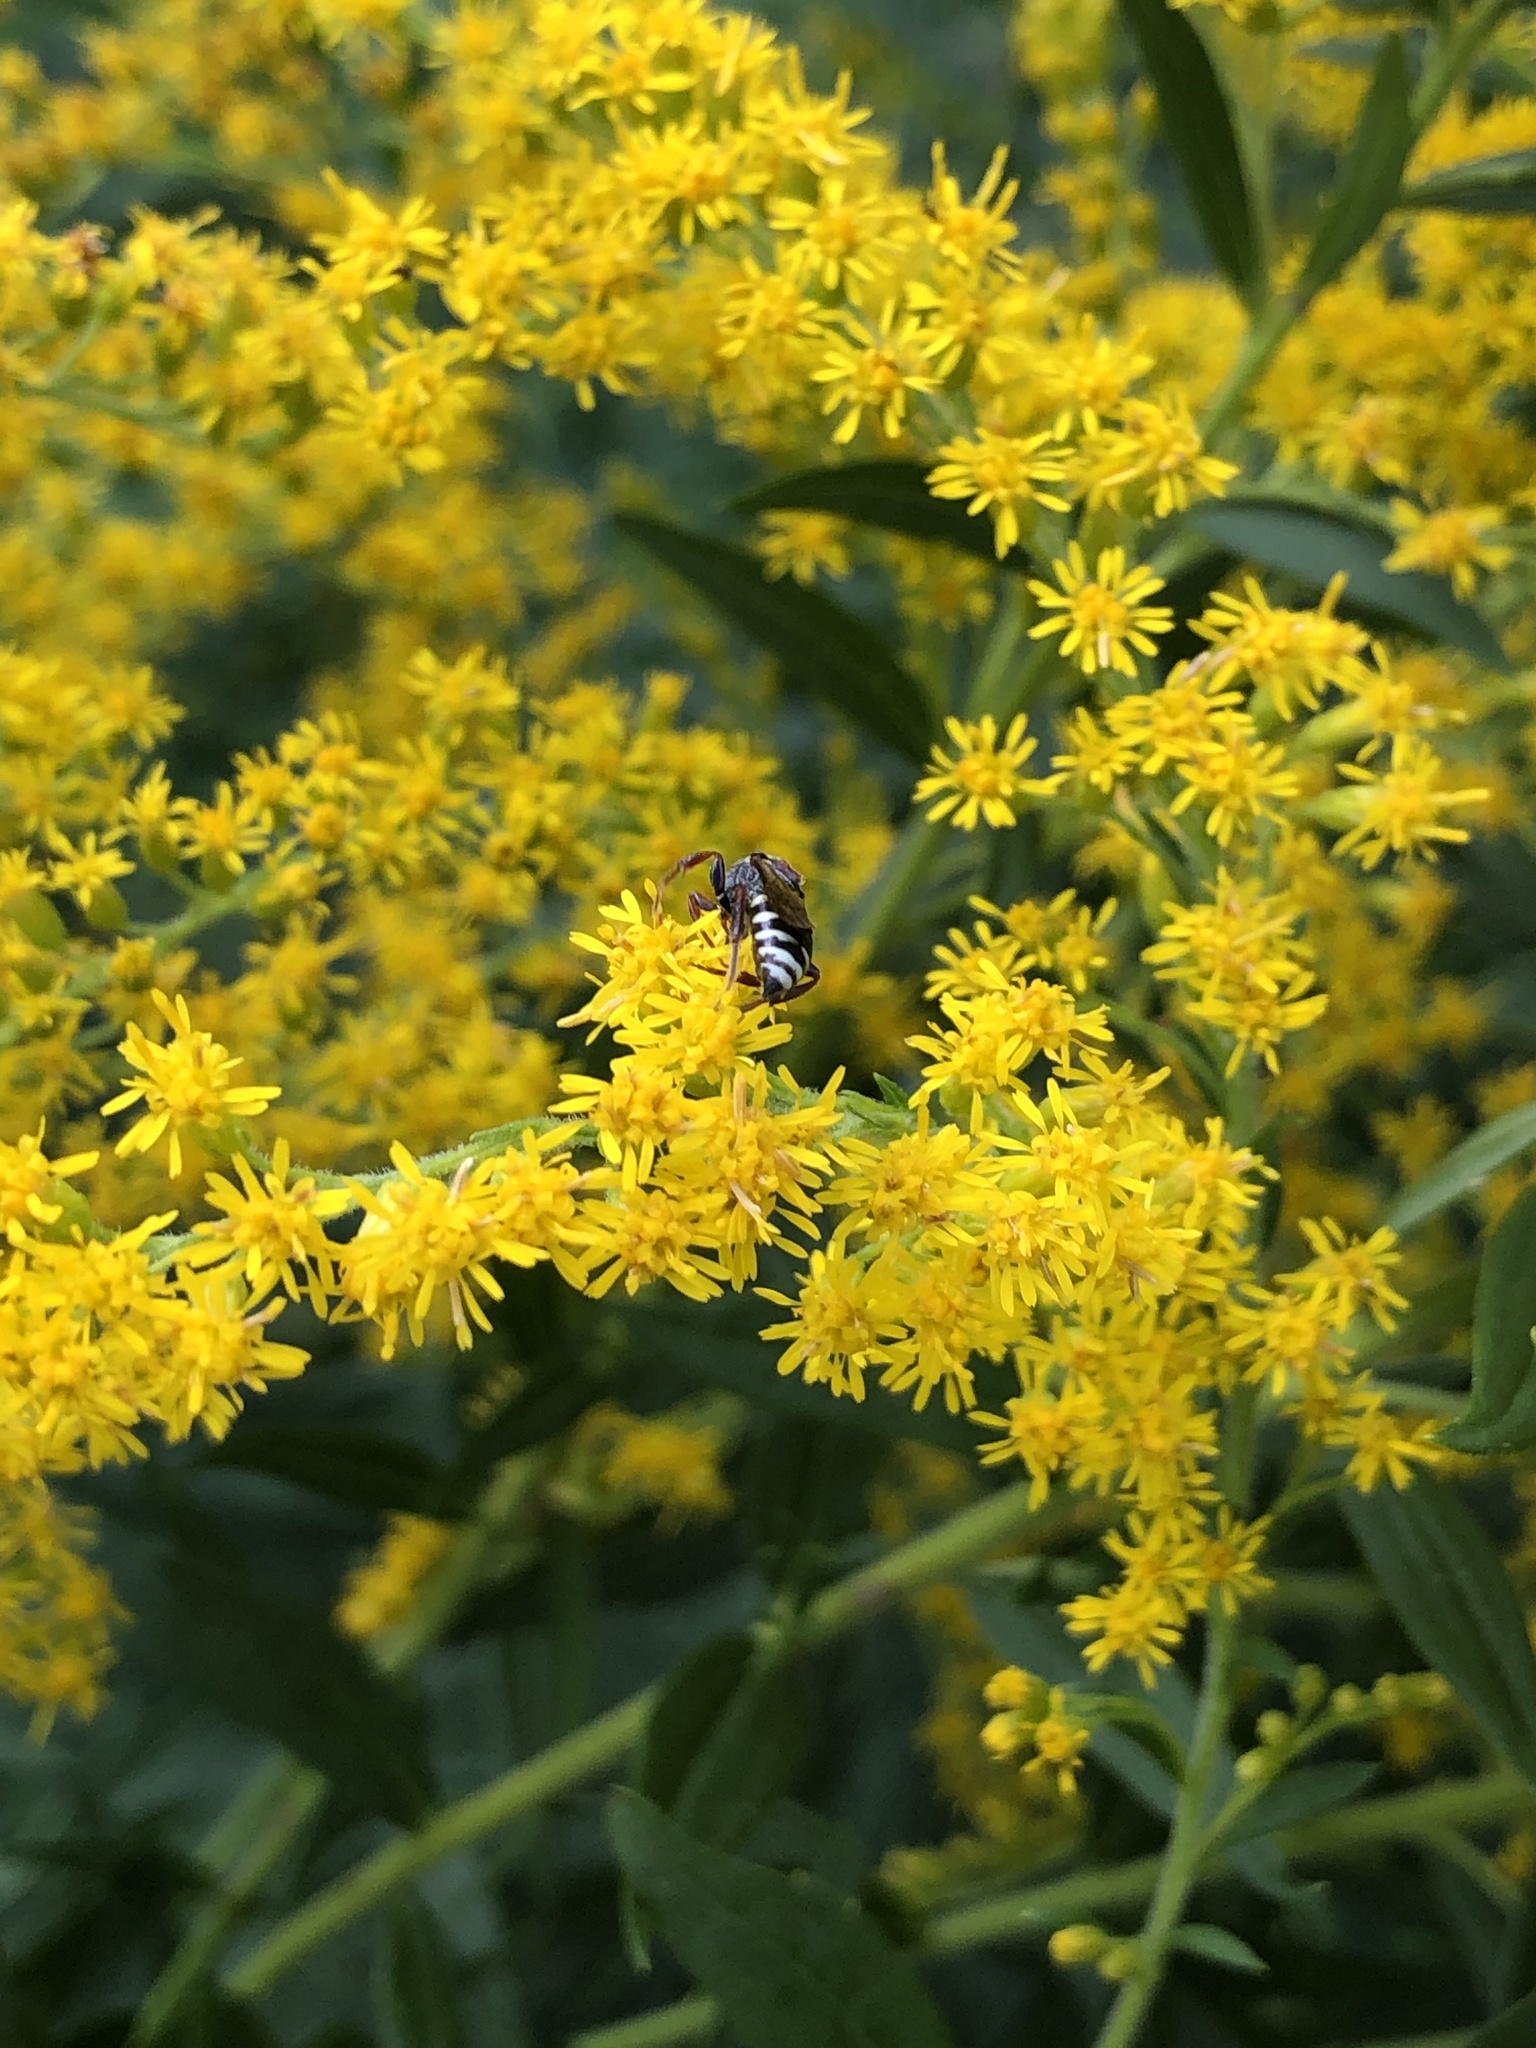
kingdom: Animalia
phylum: Arthropoda
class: Insecta
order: Hymenoptera
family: Apidae
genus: Nomada
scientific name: Nomada vicina
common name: Neighborly nomad
